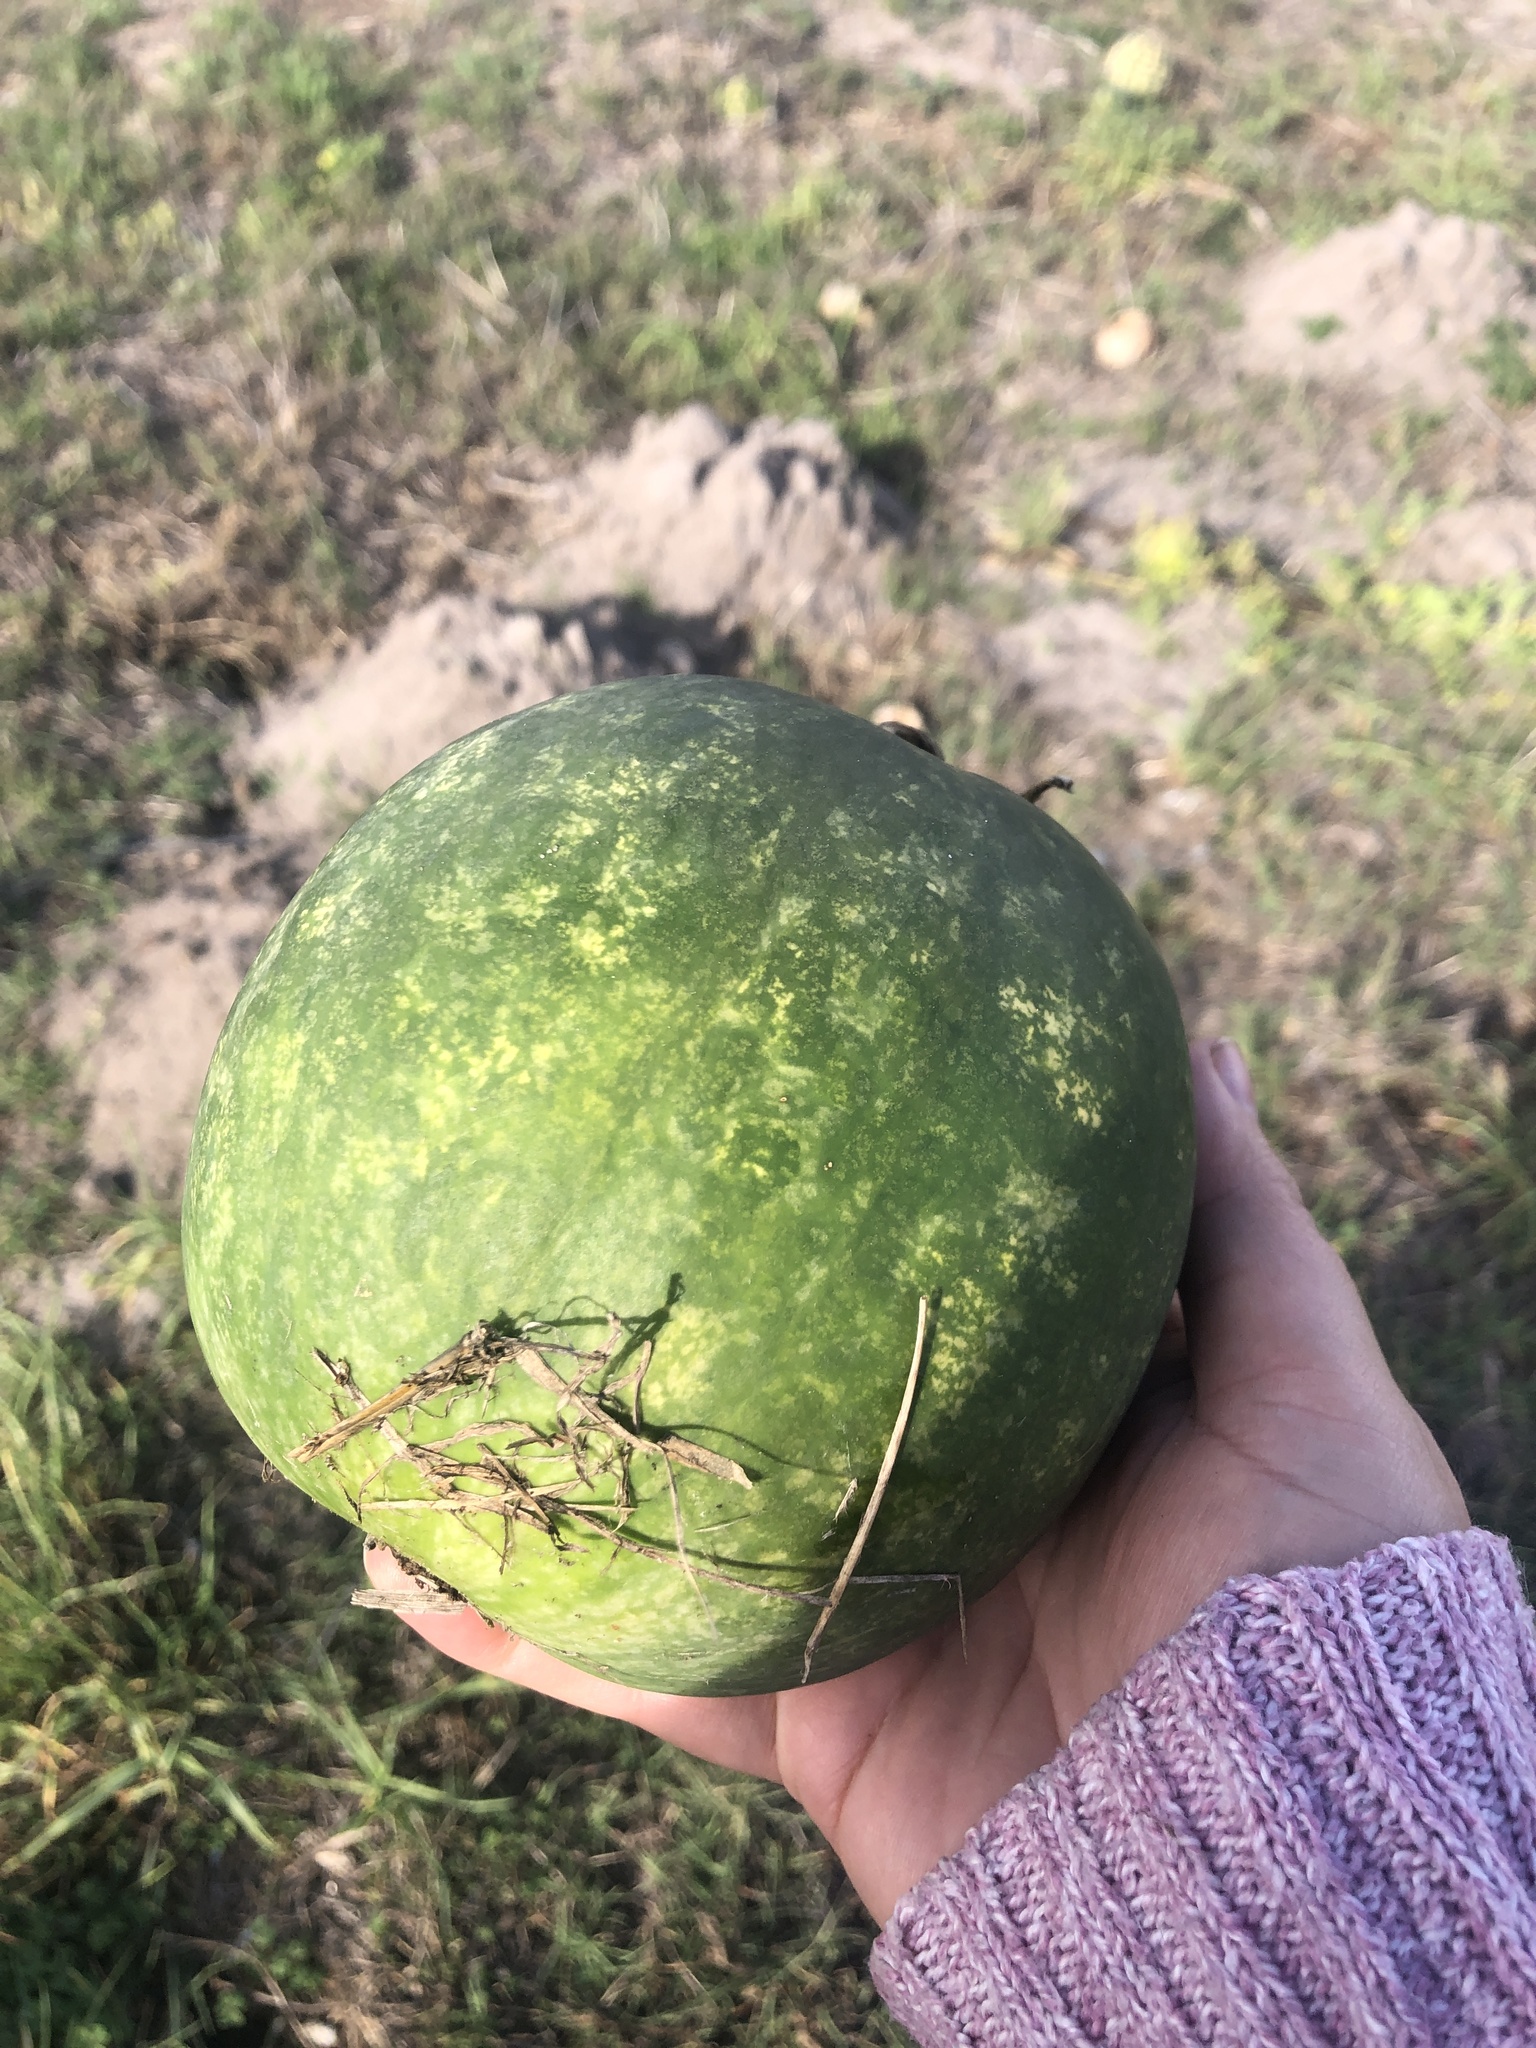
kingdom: Plantae
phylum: Tracheophyta
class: Magnoliopsida
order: Cucurbitales
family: Cucurbitaceae
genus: Citrullus
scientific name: Citrullus amarus
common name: Fodder-melon
